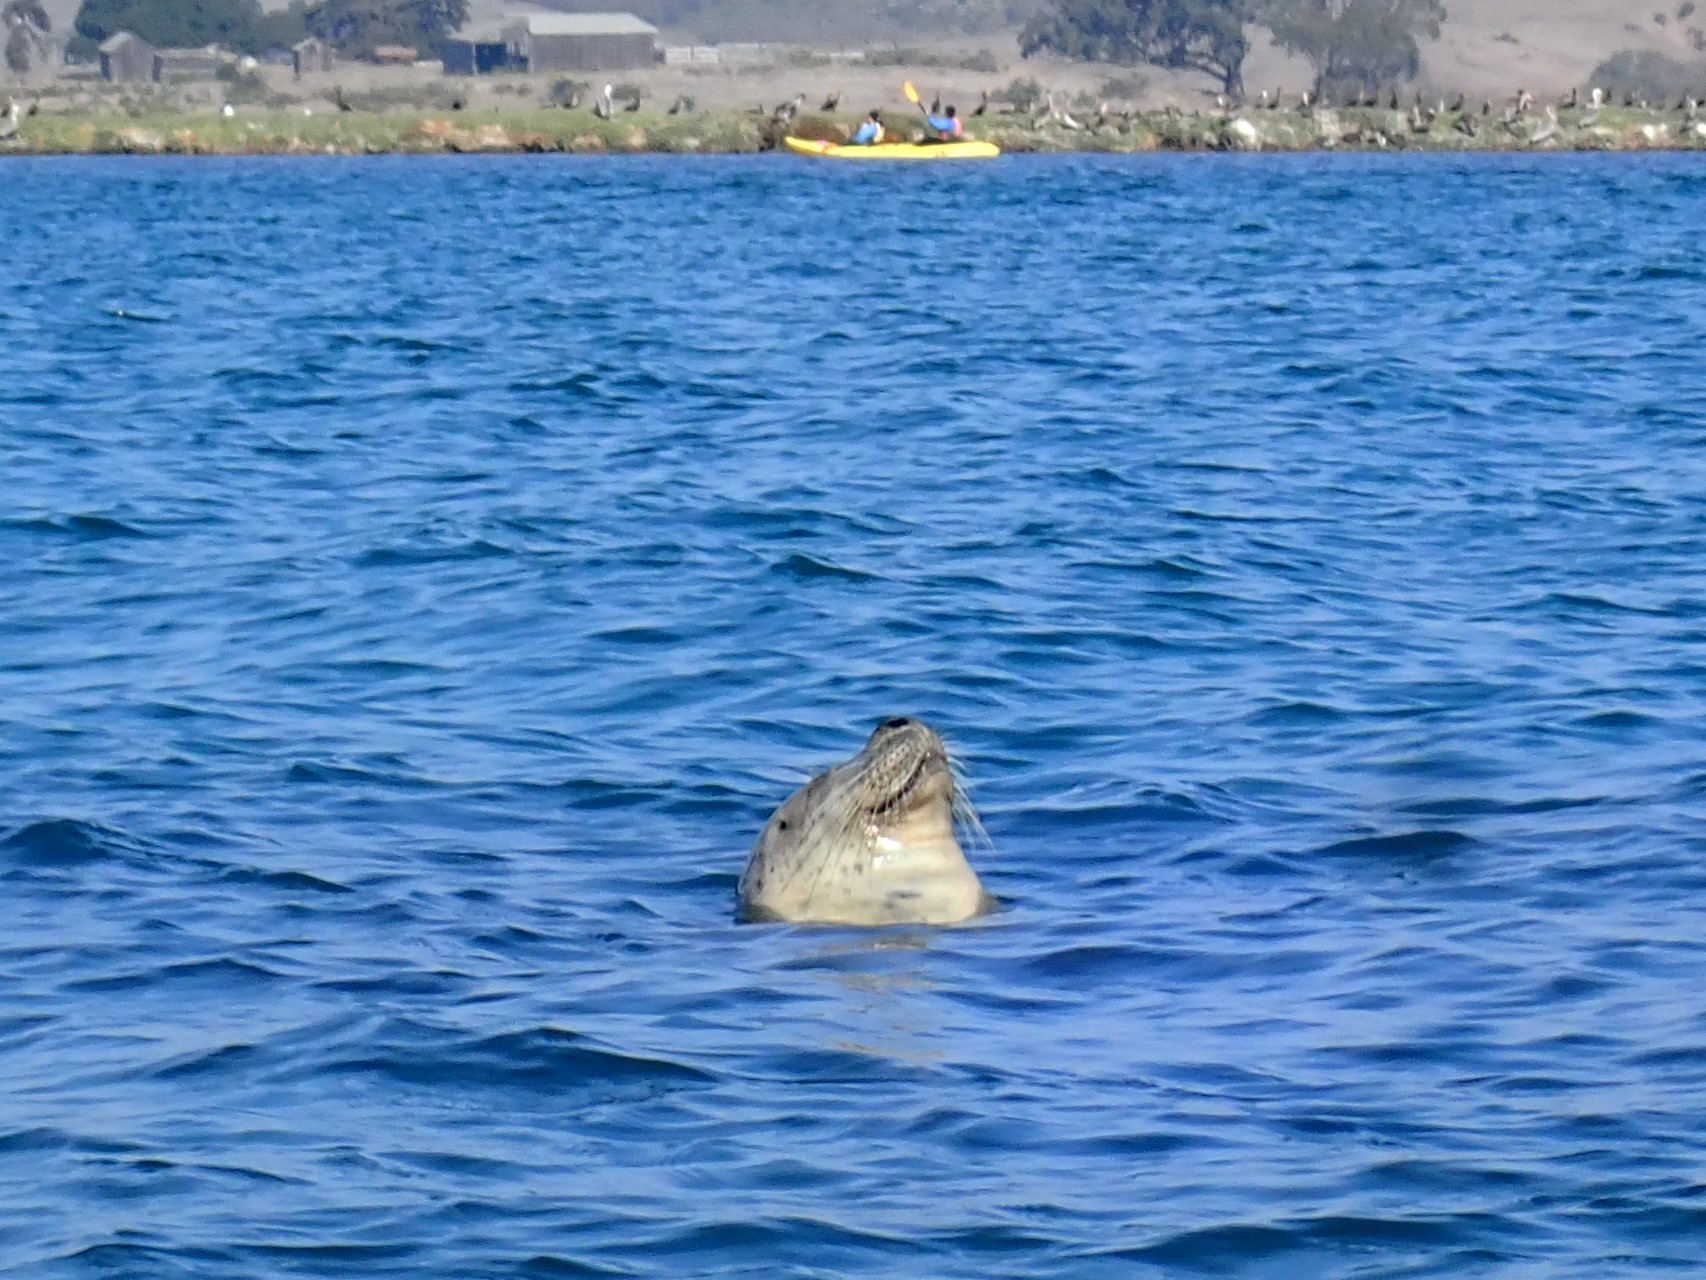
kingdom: Animalia
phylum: Chordata
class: Mammalia
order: Carnivora
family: Phocidae
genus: Phoca
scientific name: Phoca vitulina
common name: Harbor seal
